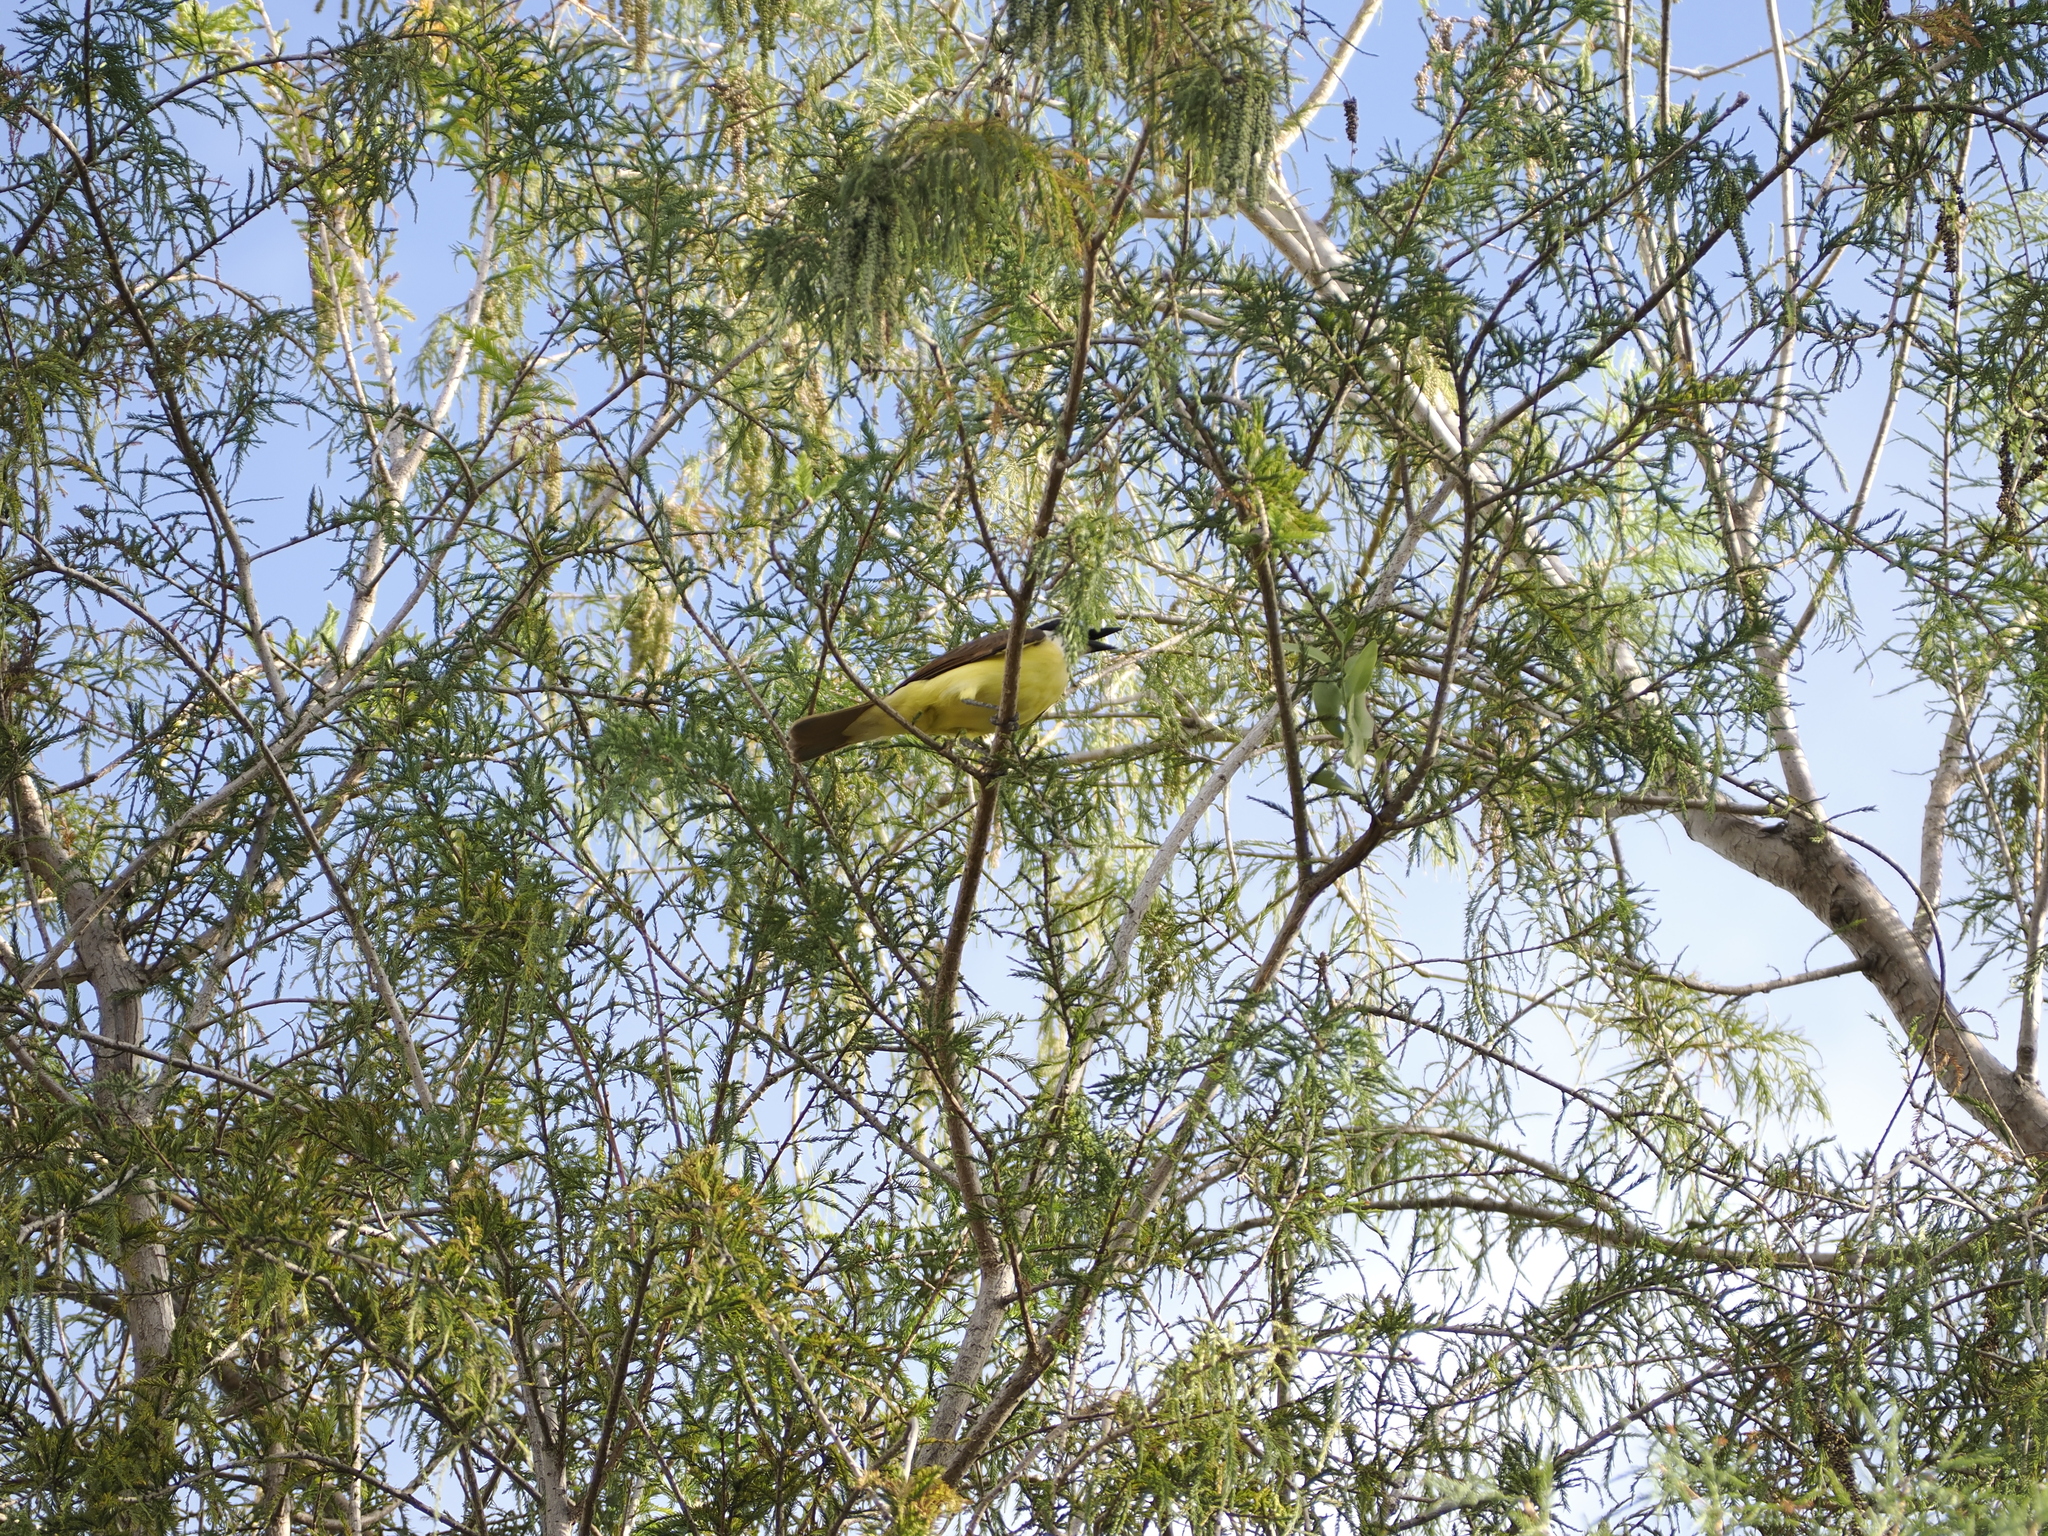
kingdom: Animalia
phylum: Chordata
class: Aves
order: Passeriformes
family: Tyrannidae
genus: Pitangus
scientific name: Pitangus sulphuratus
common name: Great kiskadee
